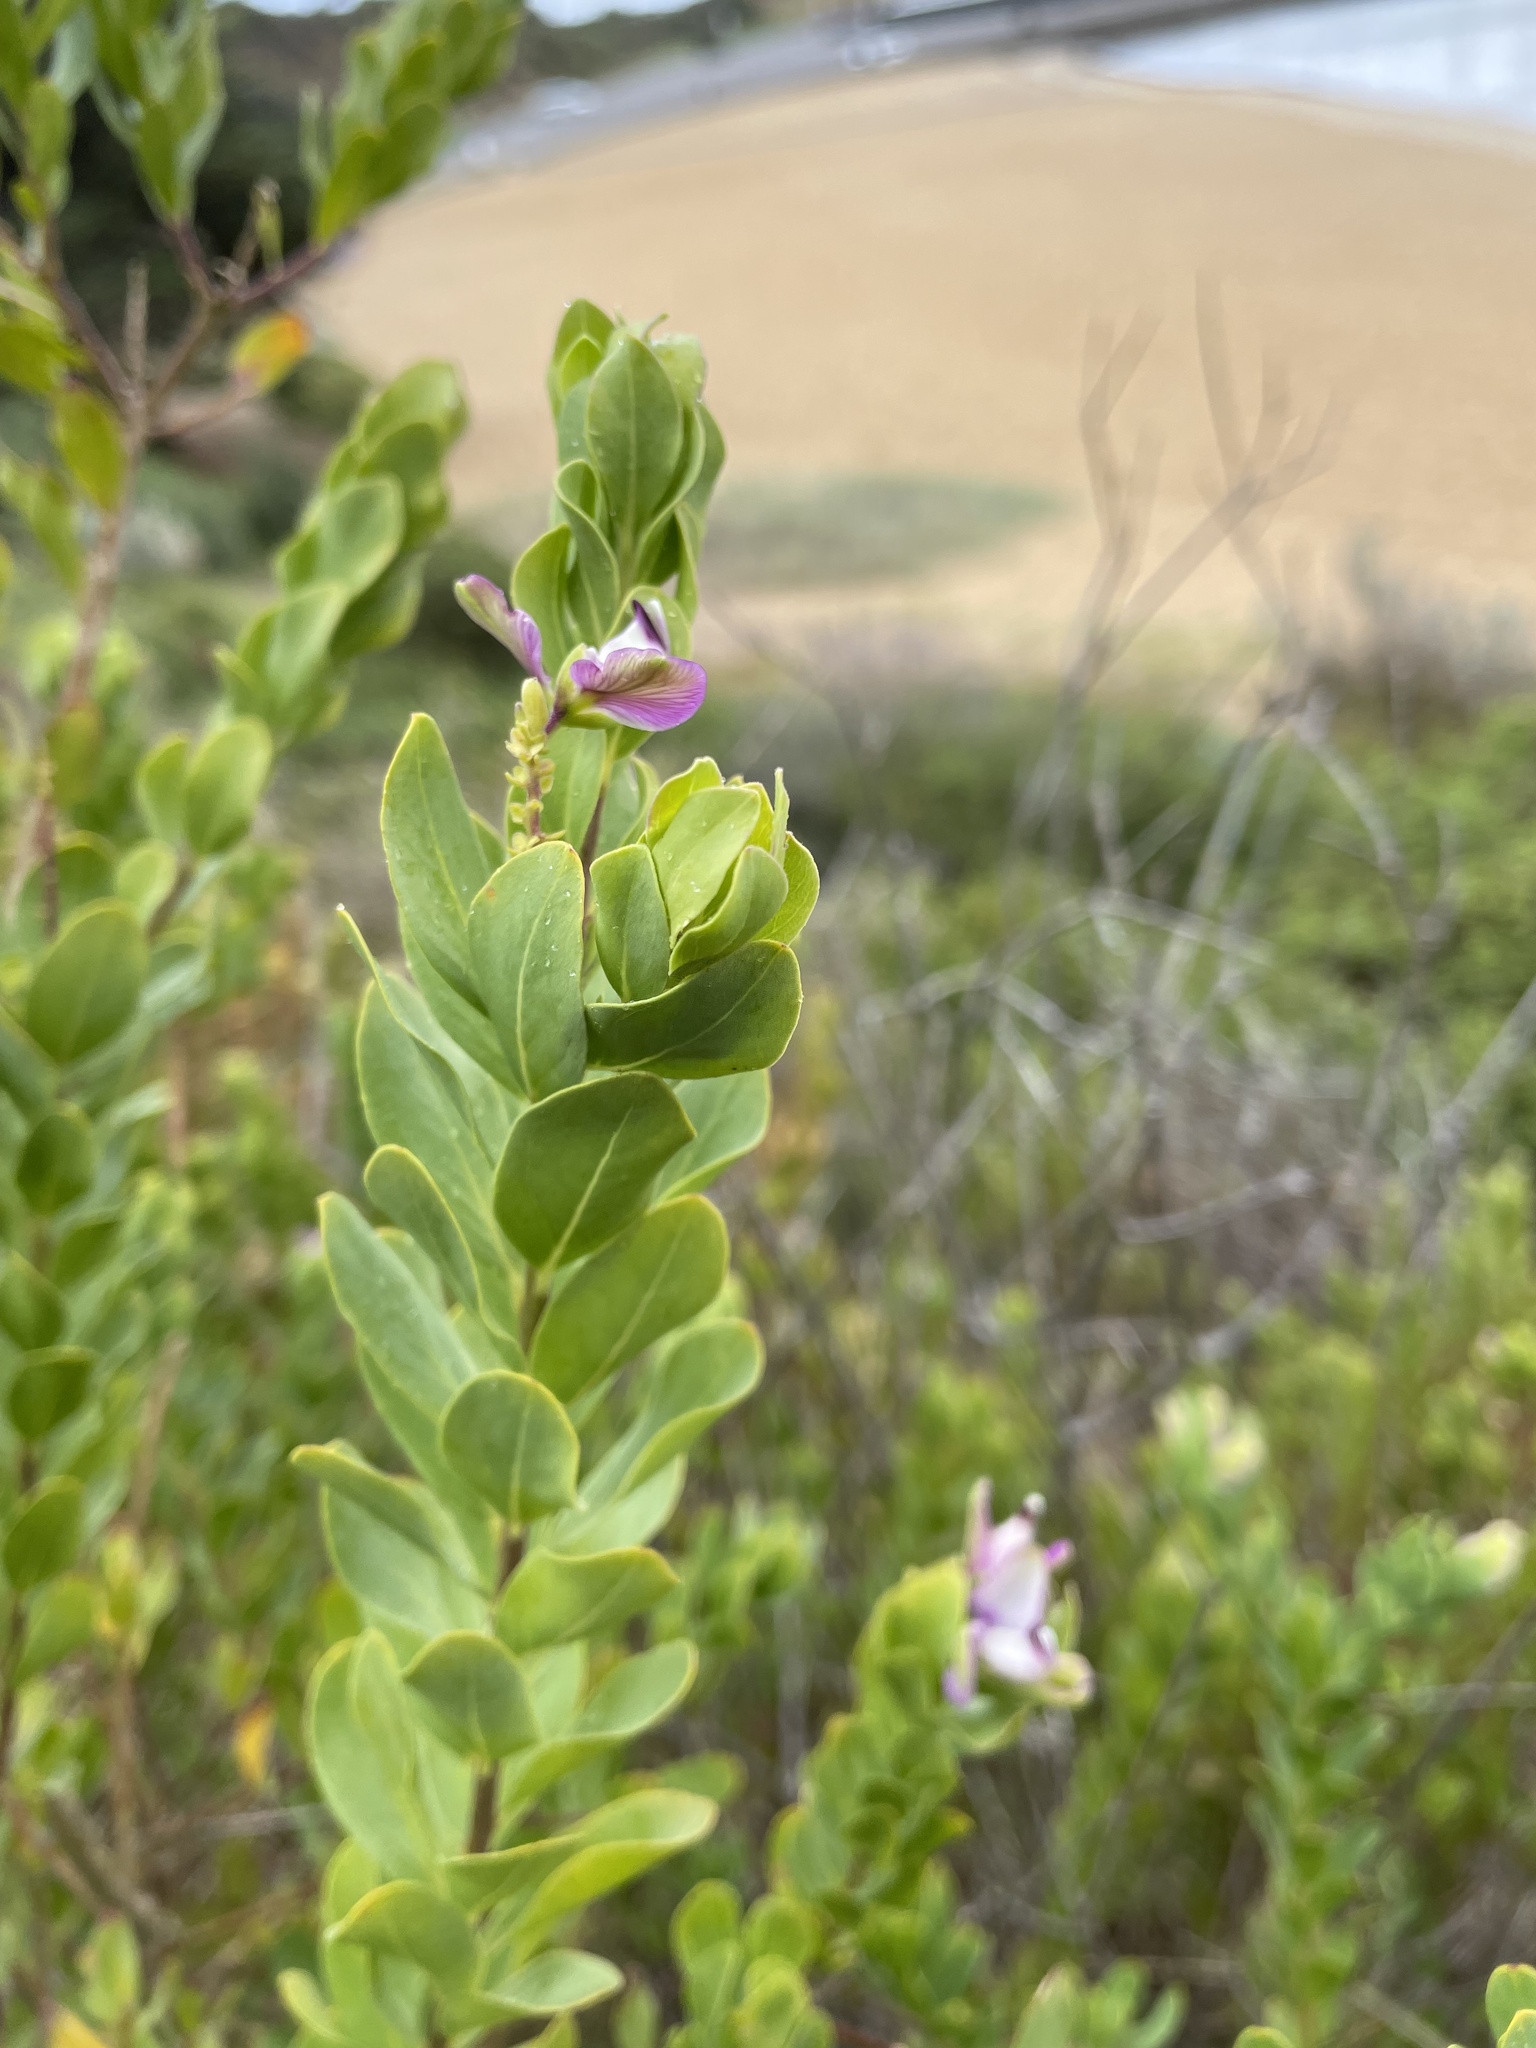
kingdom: Plantae
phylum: Tracheophyta
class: Magnoliopsida
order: Fabales
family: Polygalaceae
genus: Polygala
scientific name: Polygala myrtifolia
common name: Myrtle-leaf milkwort
